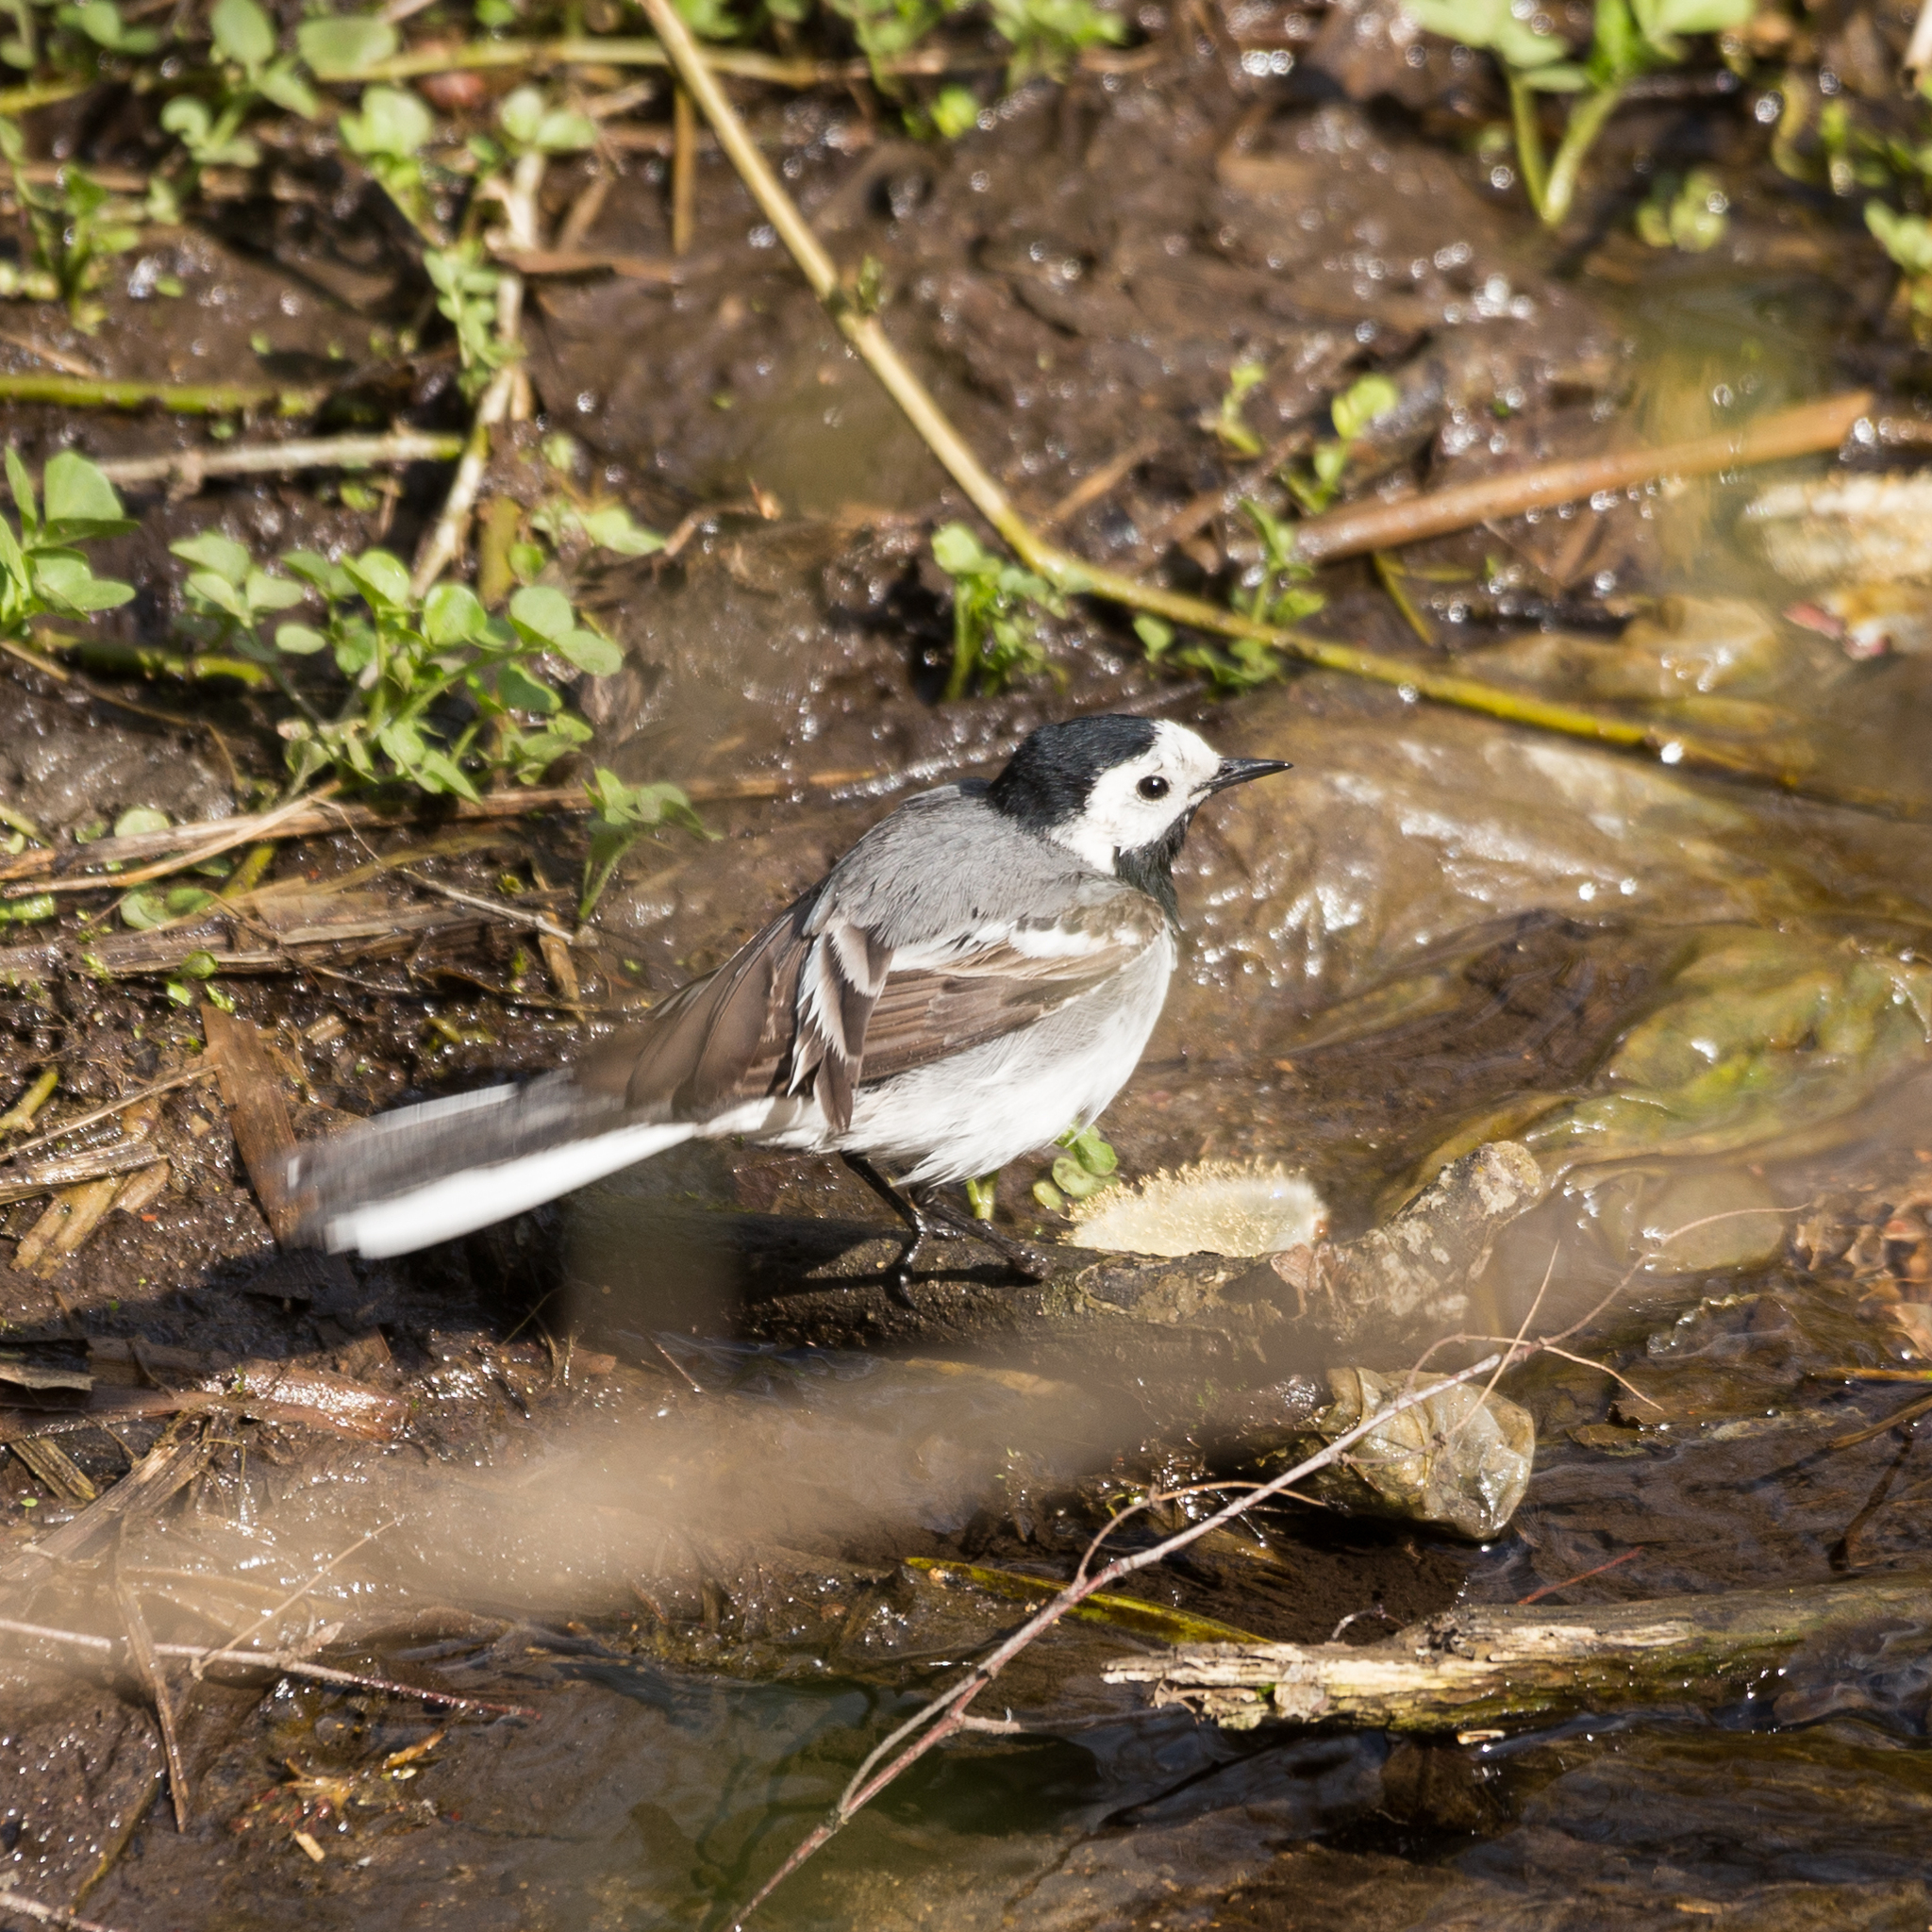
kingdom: Animalia
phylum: Chordata
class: Aves
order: Passeriformes
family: Motacillidae
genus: Motacilla
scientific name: Motacilla alba
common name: White wagtail
